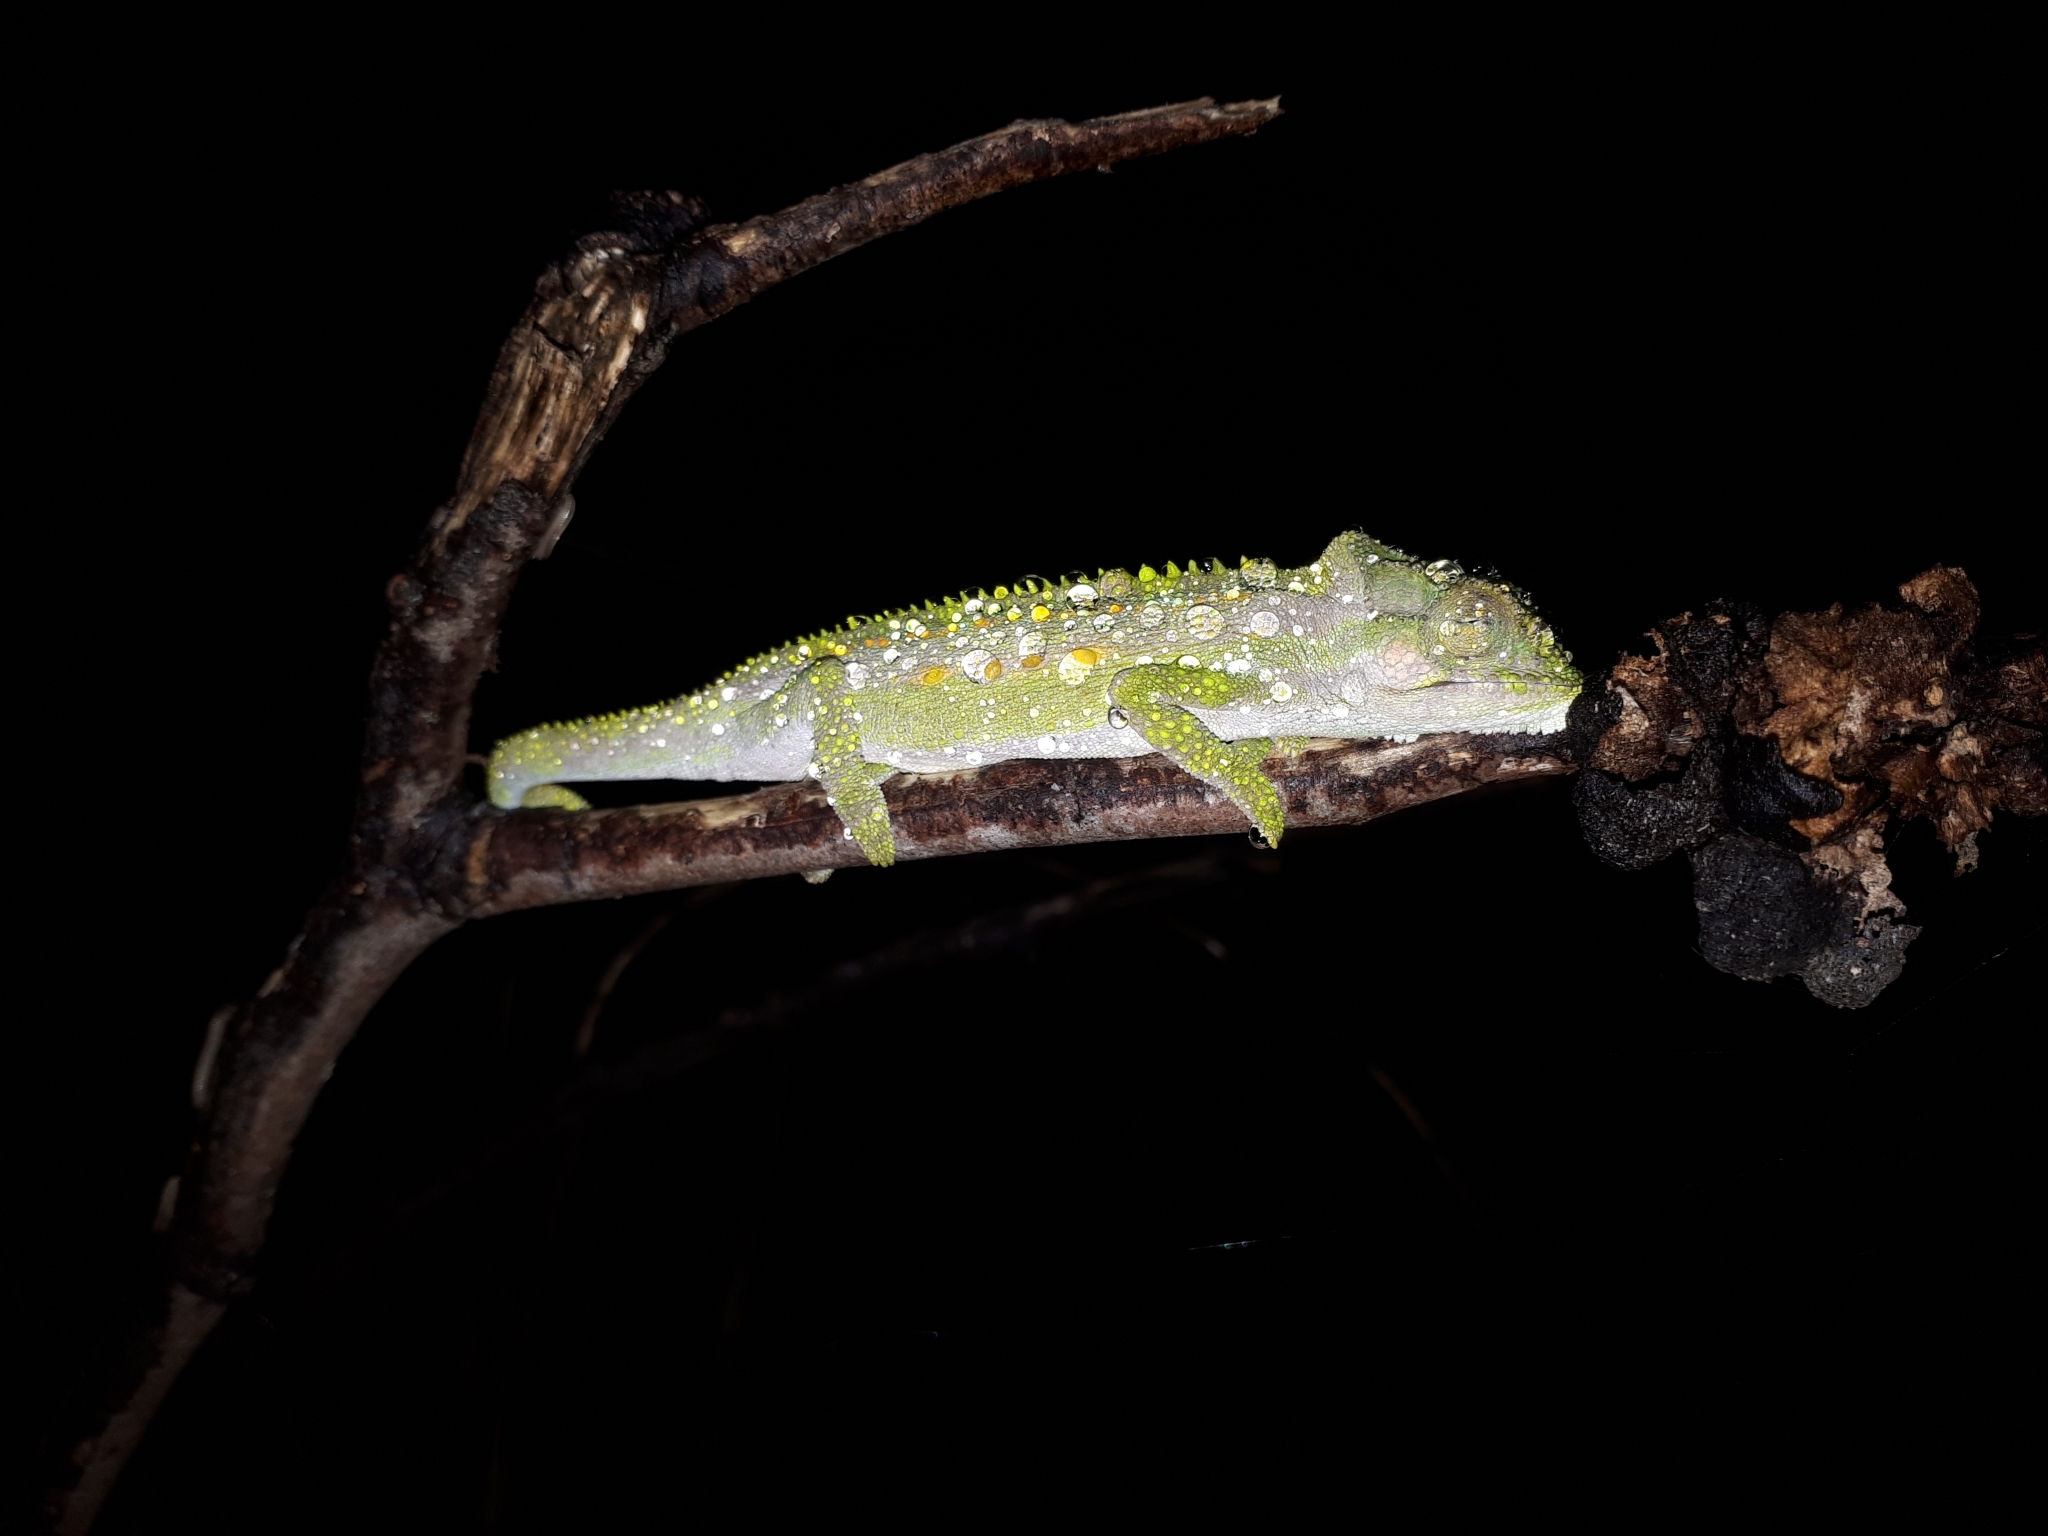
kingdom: Animalia
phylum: Chordata
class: Squamata
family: Chamaeleonidae
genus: Bradypodion
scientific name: Bradypodion pumilum
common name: Cape dwarf chameleon
